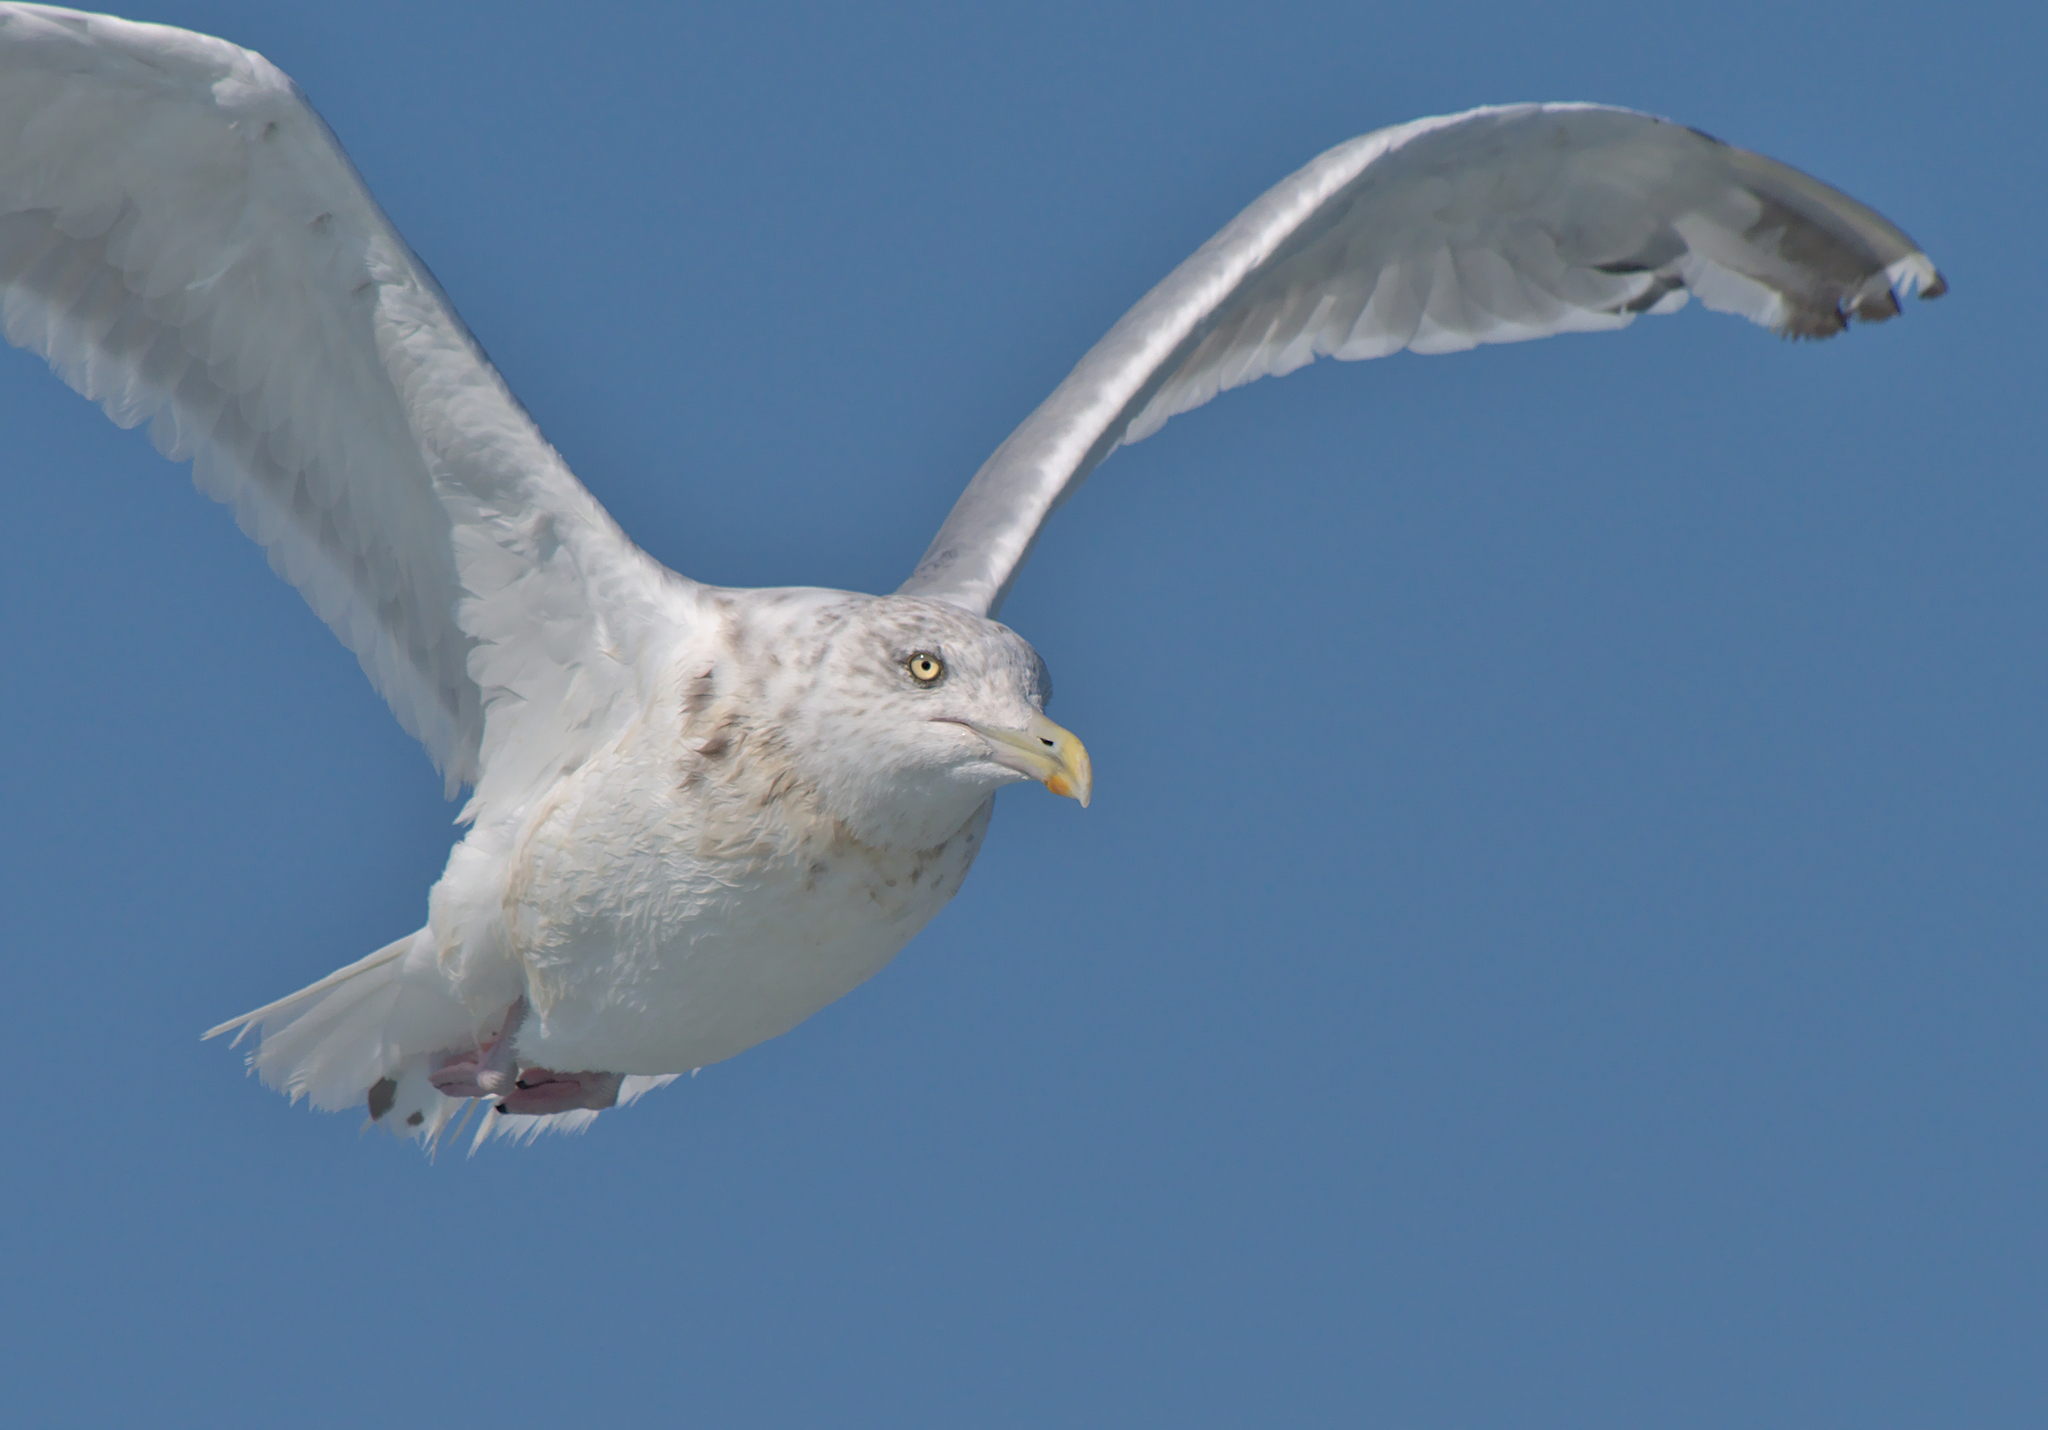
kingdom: Animalia
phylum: Chordata
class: Aves
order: Charadriiformes
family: Laridae
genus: Larus
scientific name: Larus argentatus
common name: Herring gull
